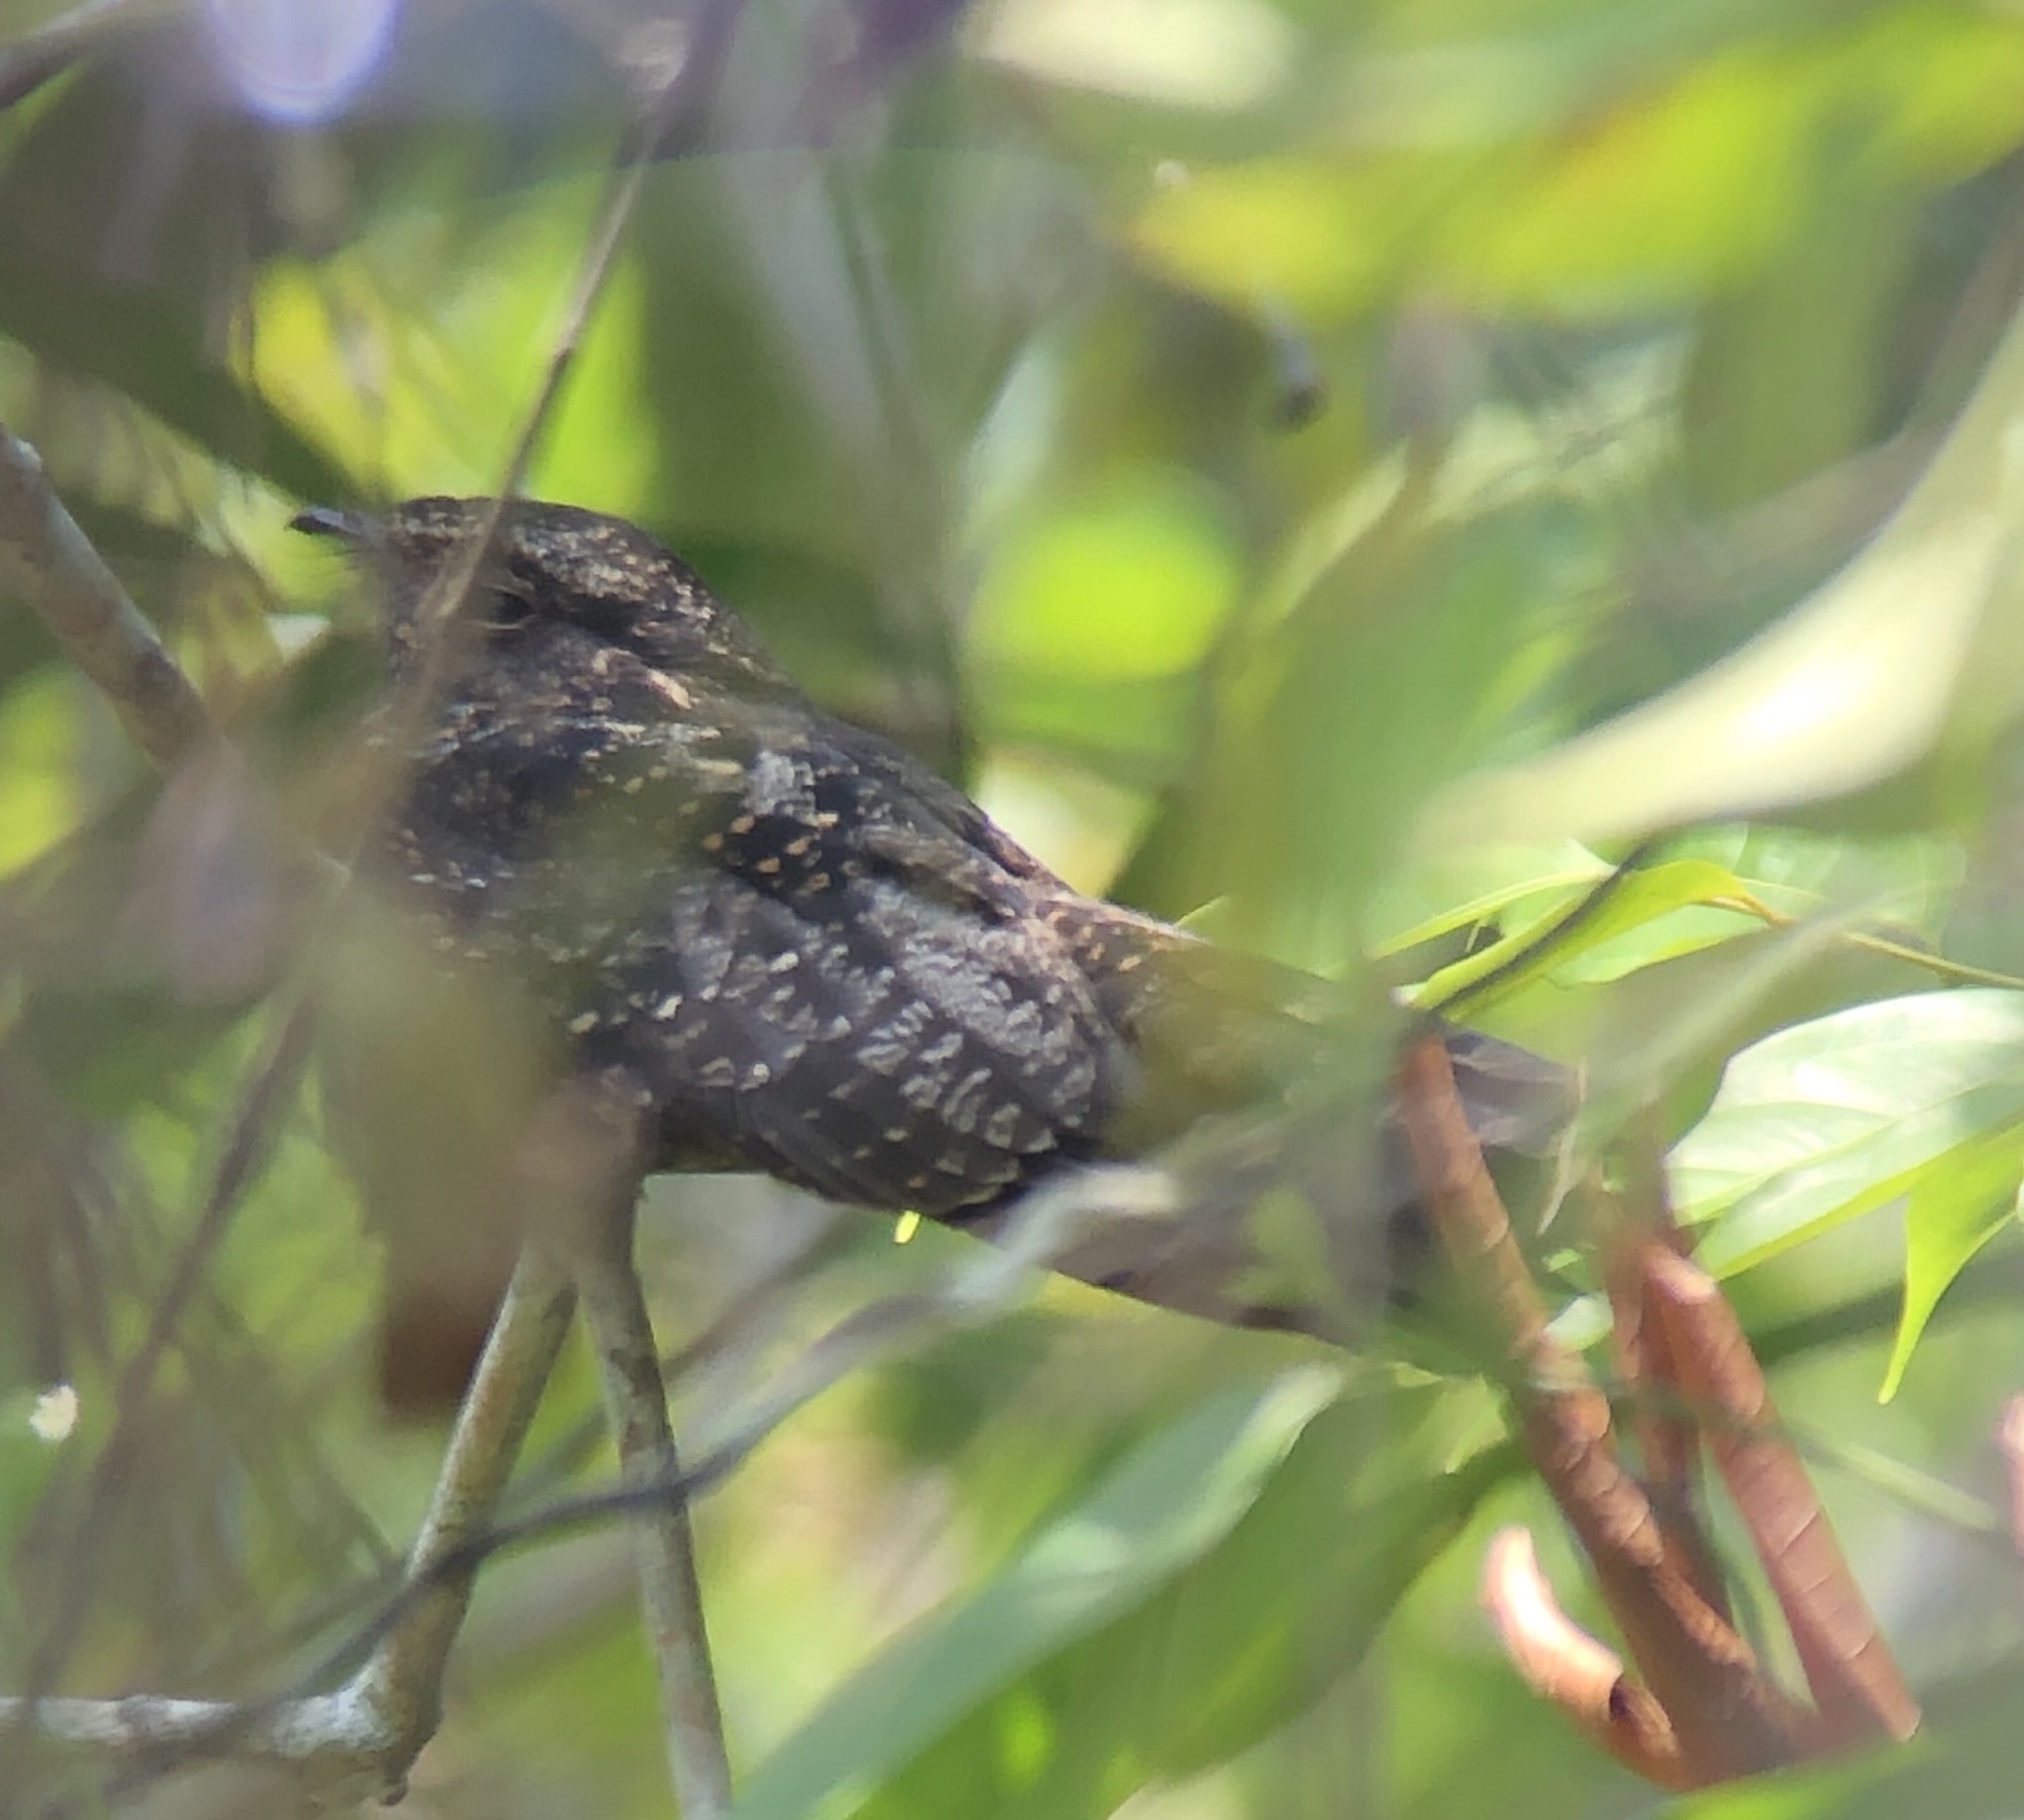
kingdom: Animalia
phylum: Chordata
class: Aves
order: Caprimulgiformes
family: Caprimulgidae
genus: Nyctipolus
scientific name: Nyctipolus nigrescens
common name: Blackish nightjar
